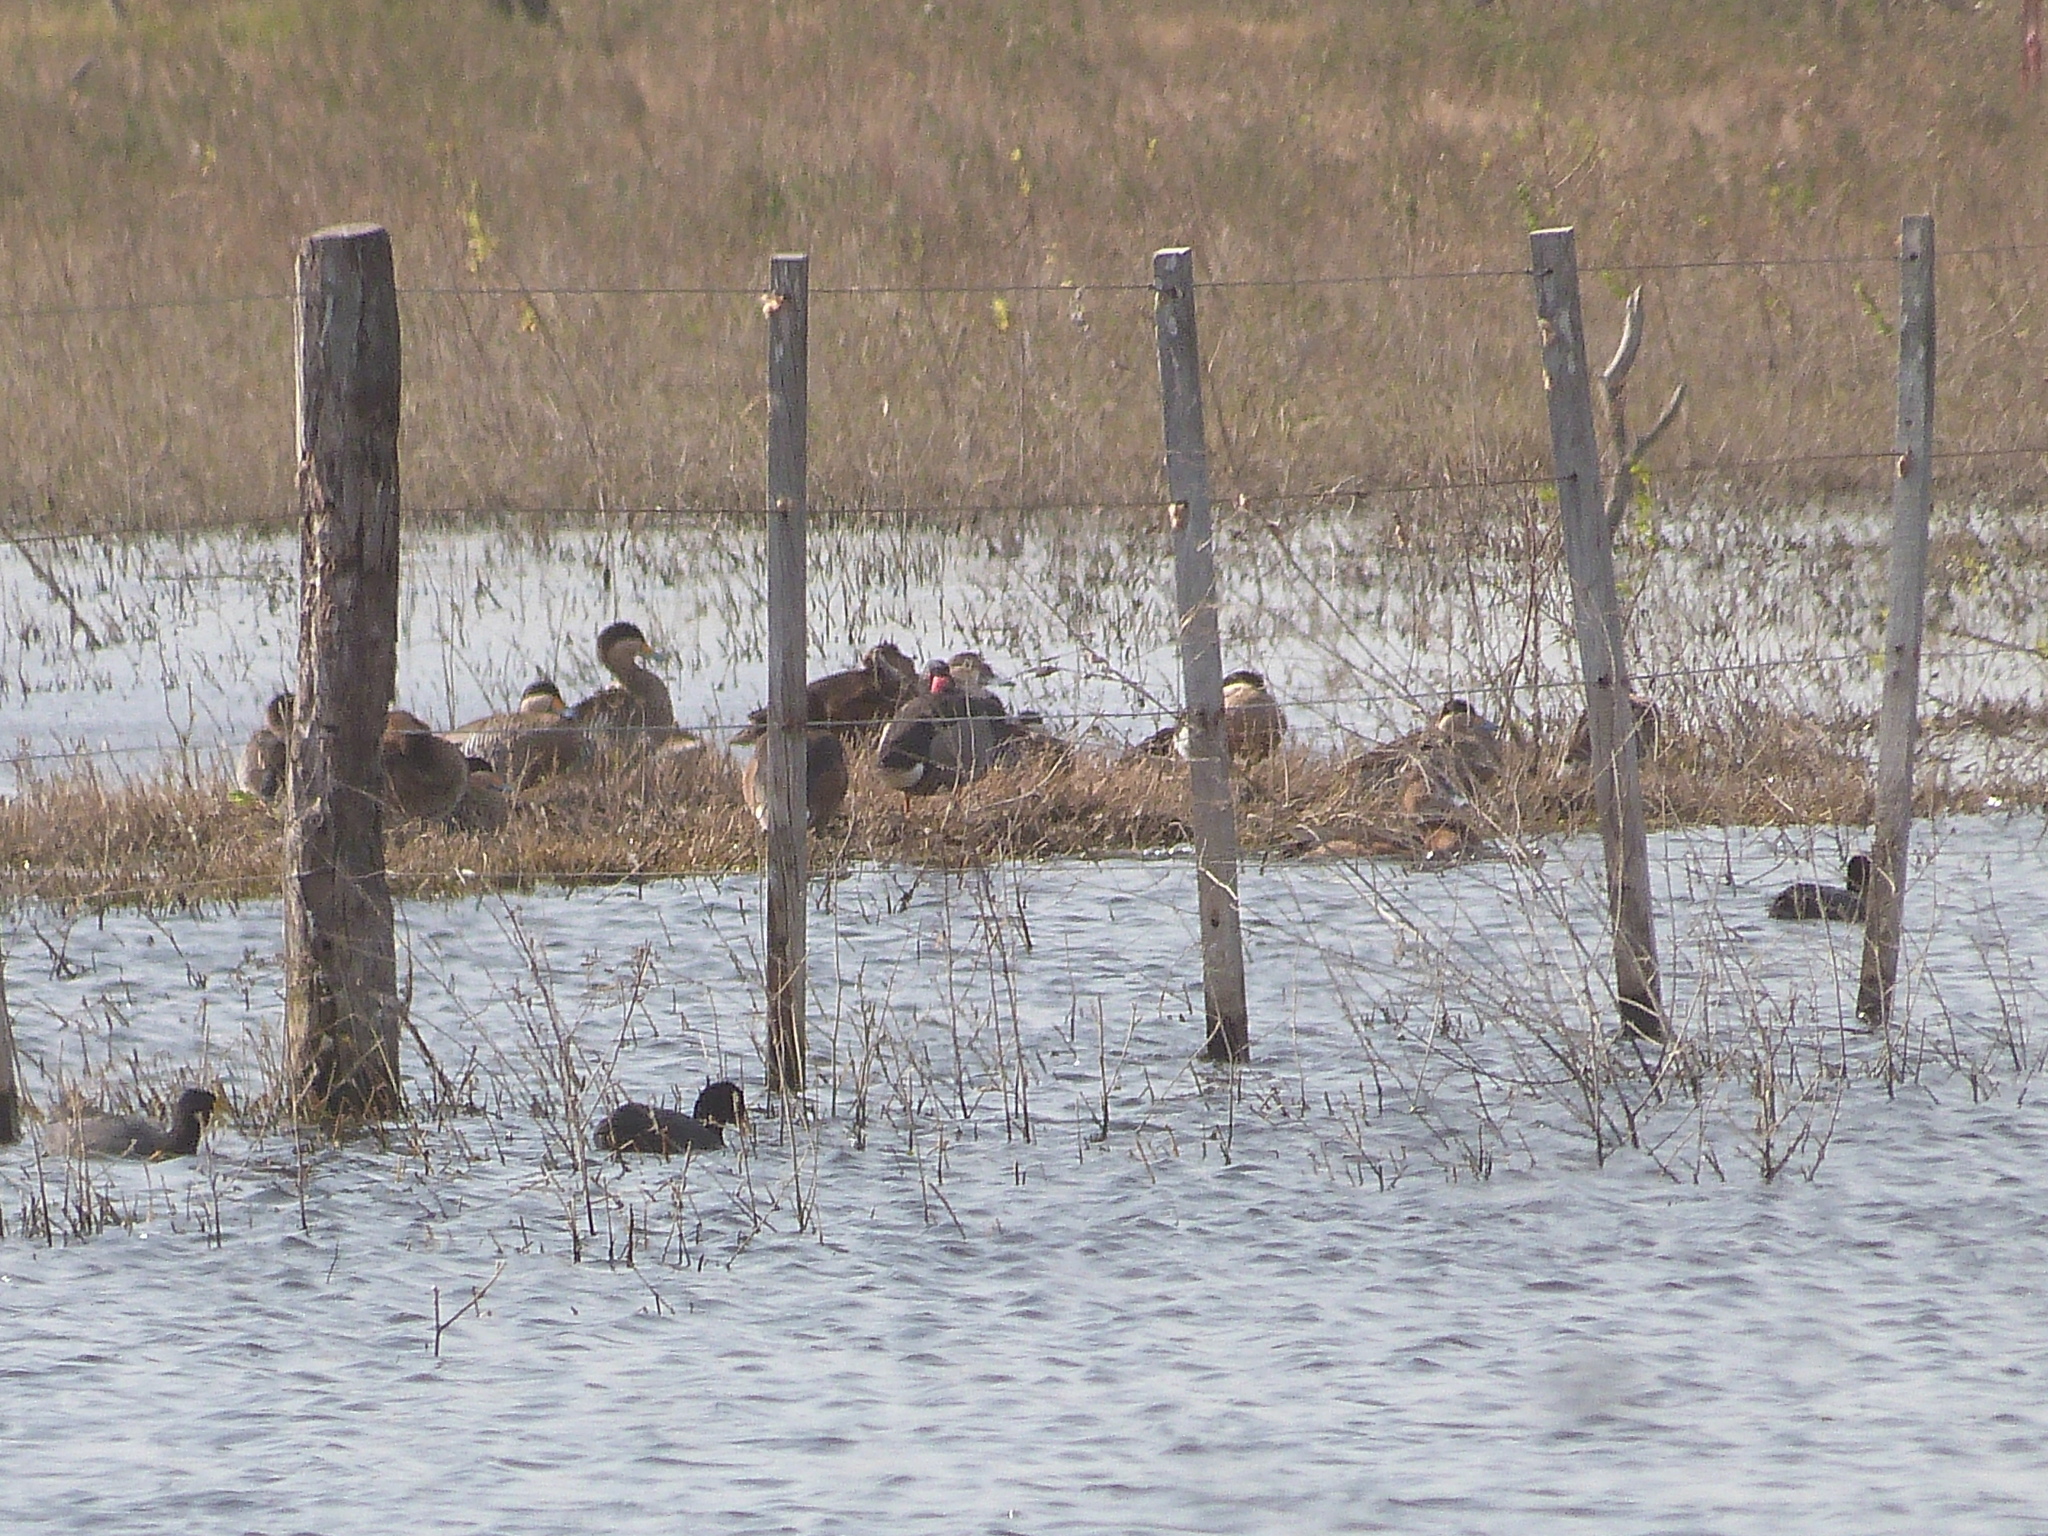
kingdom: Animalia
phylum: Chordata
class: Aves
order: Anseriformes
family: Anatidae
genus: Spatula
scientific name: Spatula versicolor
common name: Silver teal
